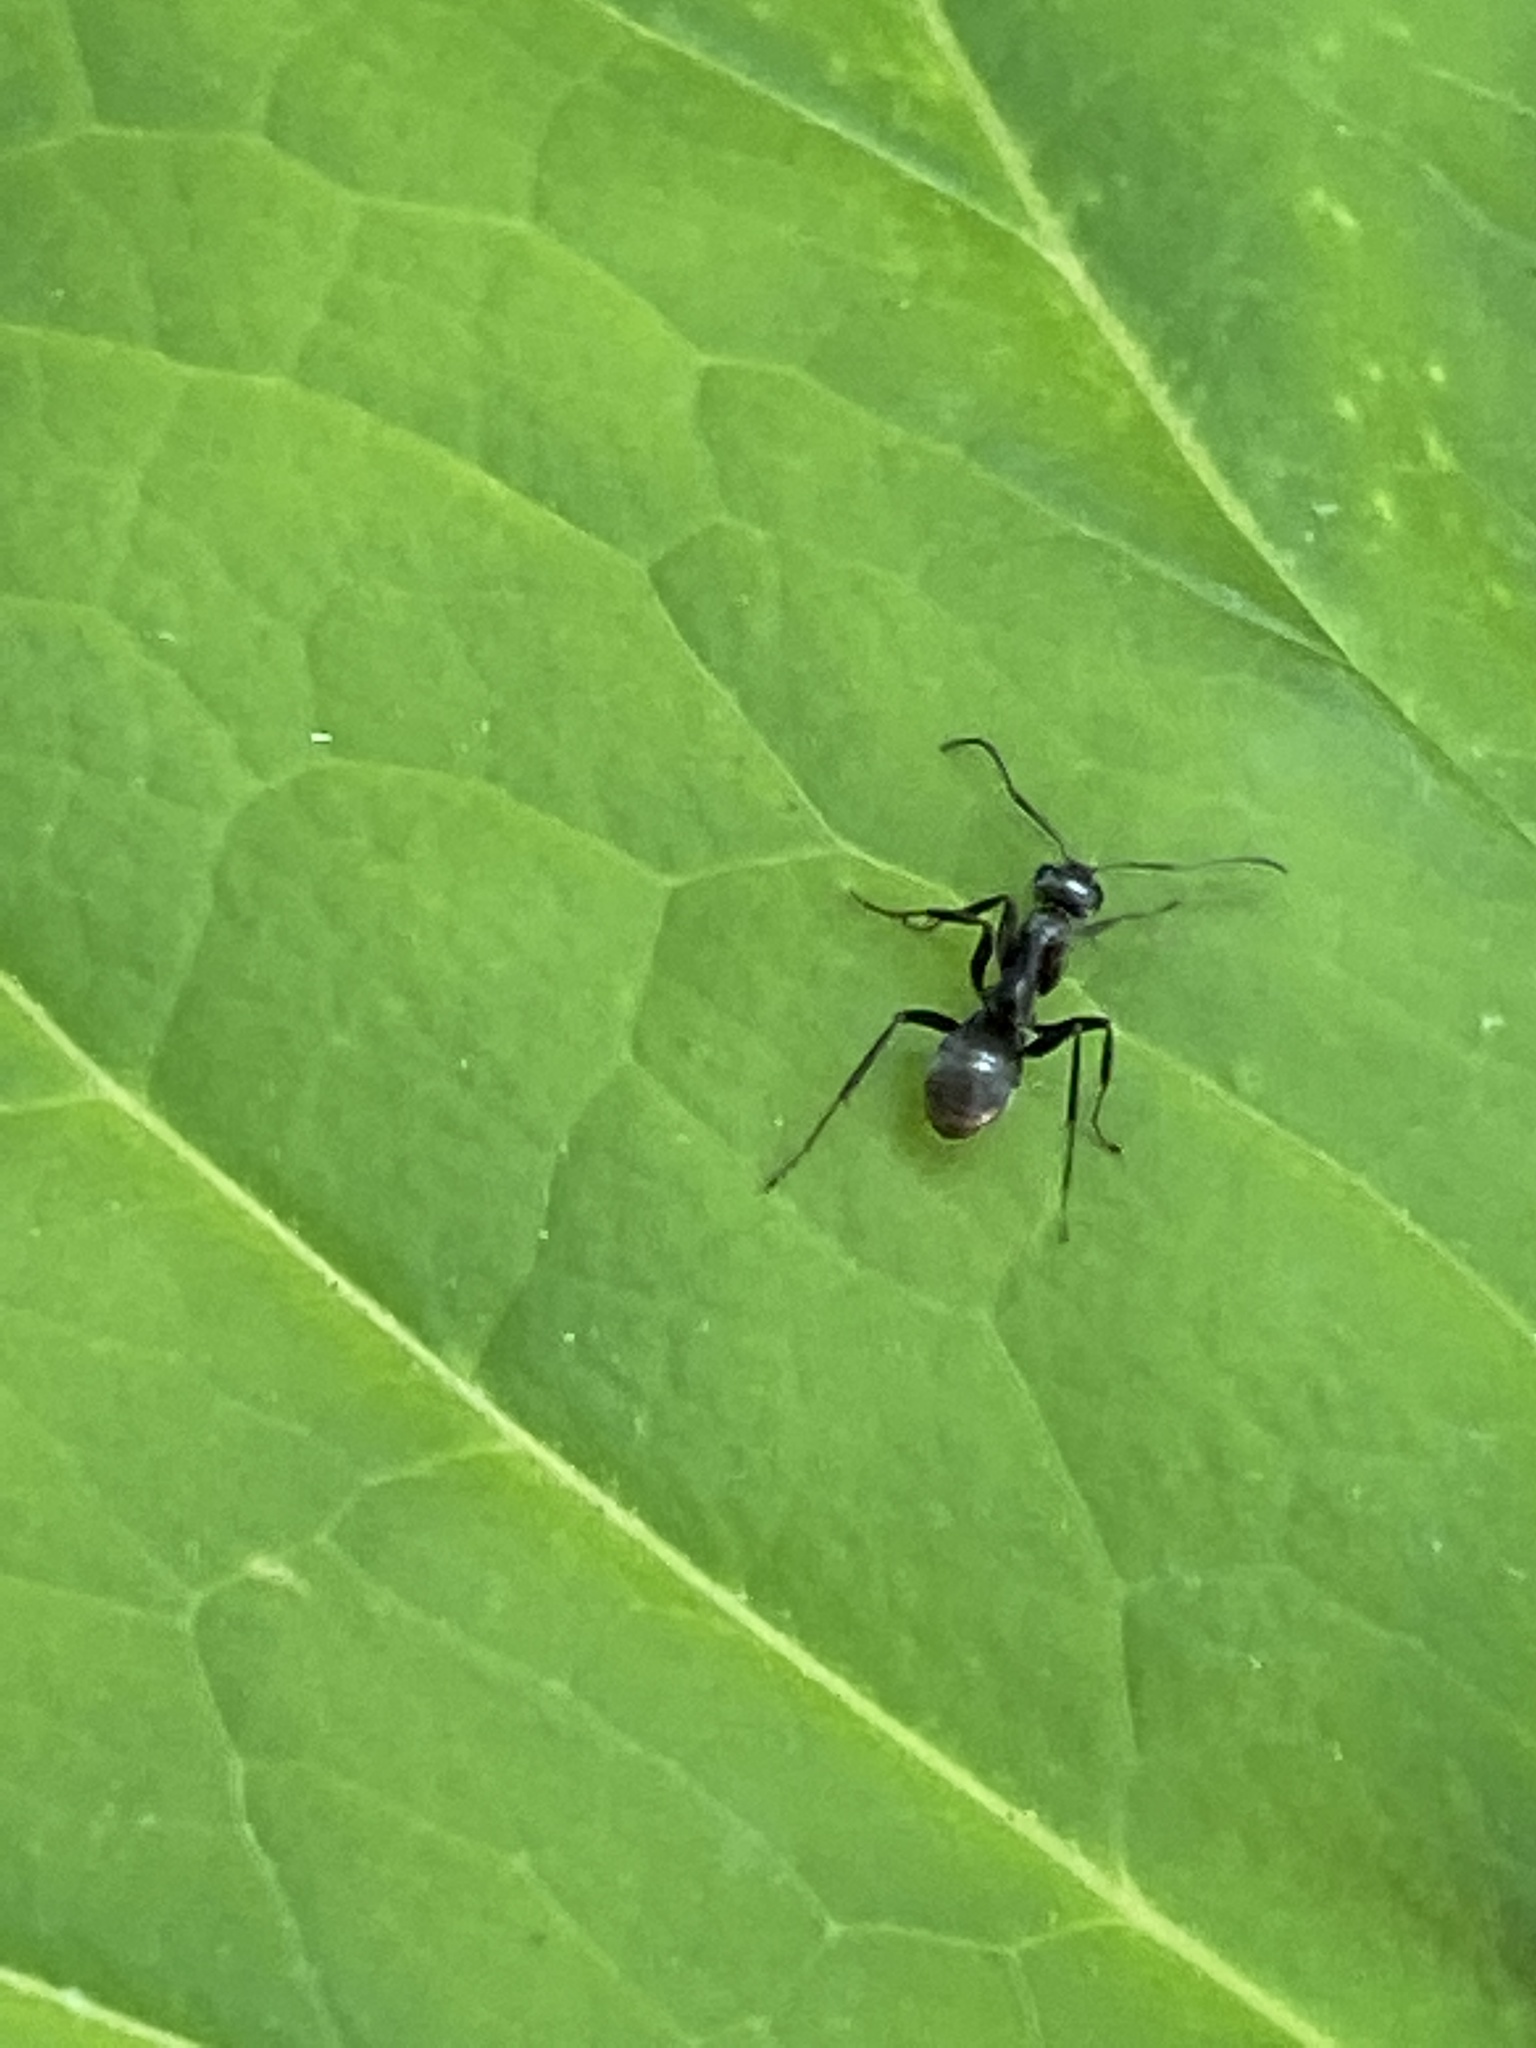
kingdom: Animalia
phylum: Arthropoda
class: Insecta
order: Hymenoptera
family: Formicidae
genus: Formica
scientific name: Formica subsericea
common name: Silky field ant
